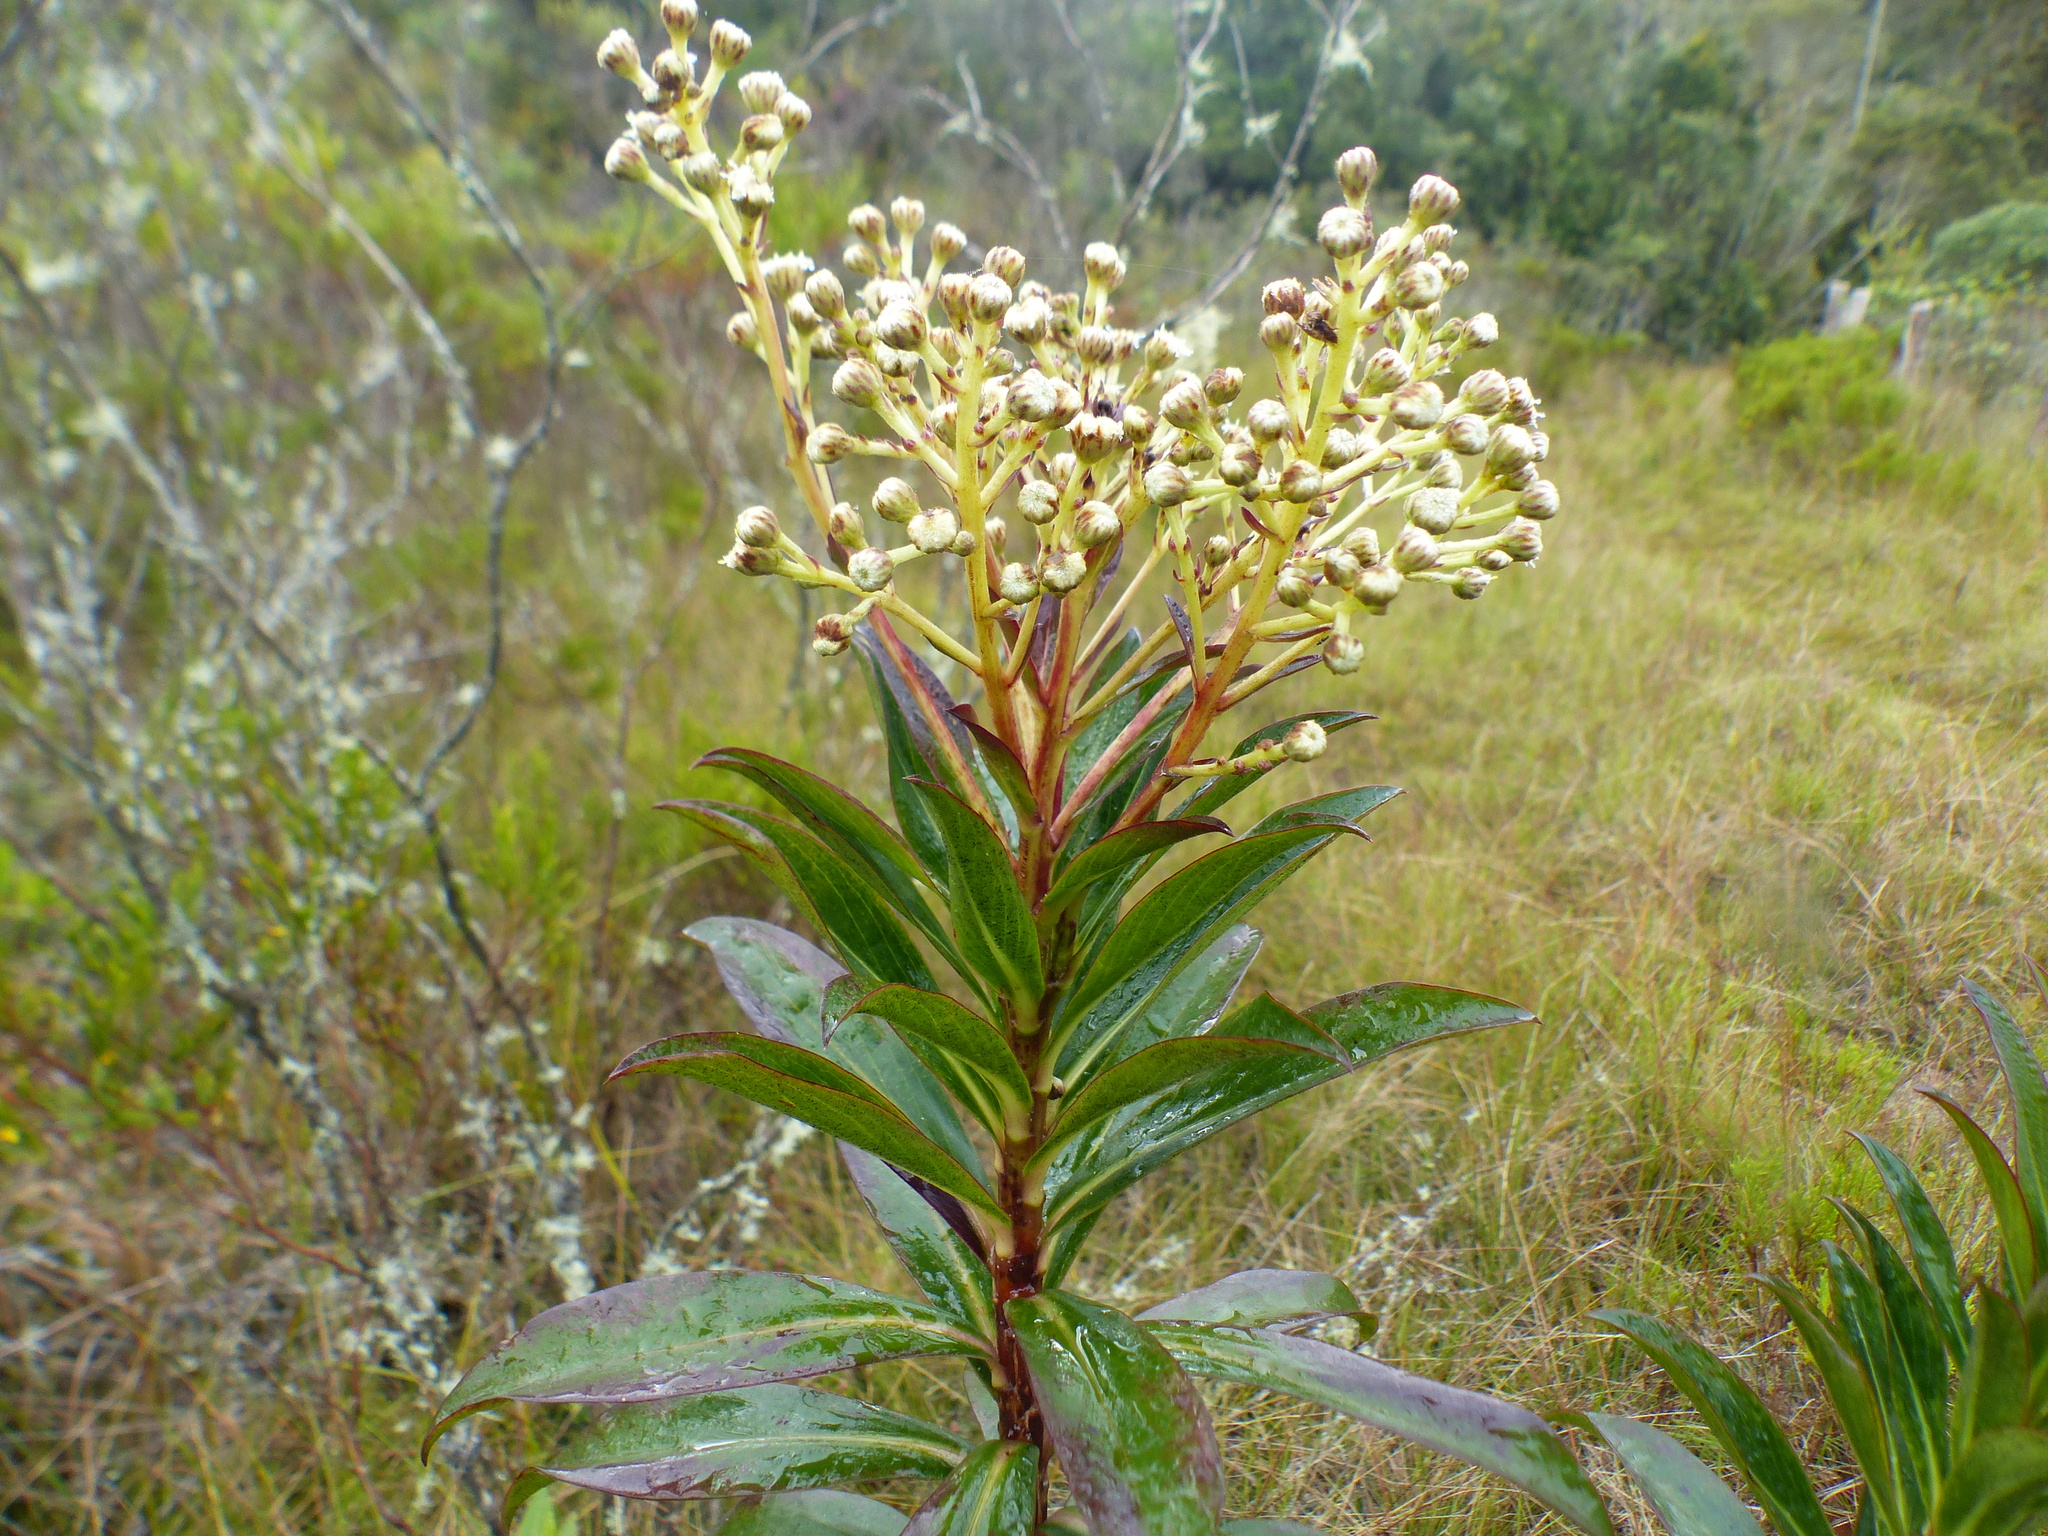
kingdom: Plantae
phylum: Tracheophyta
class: Magnoliopsida
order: Asterales
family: Asteraceae
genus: Baccharis
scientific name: Baccharis oblongifolia
